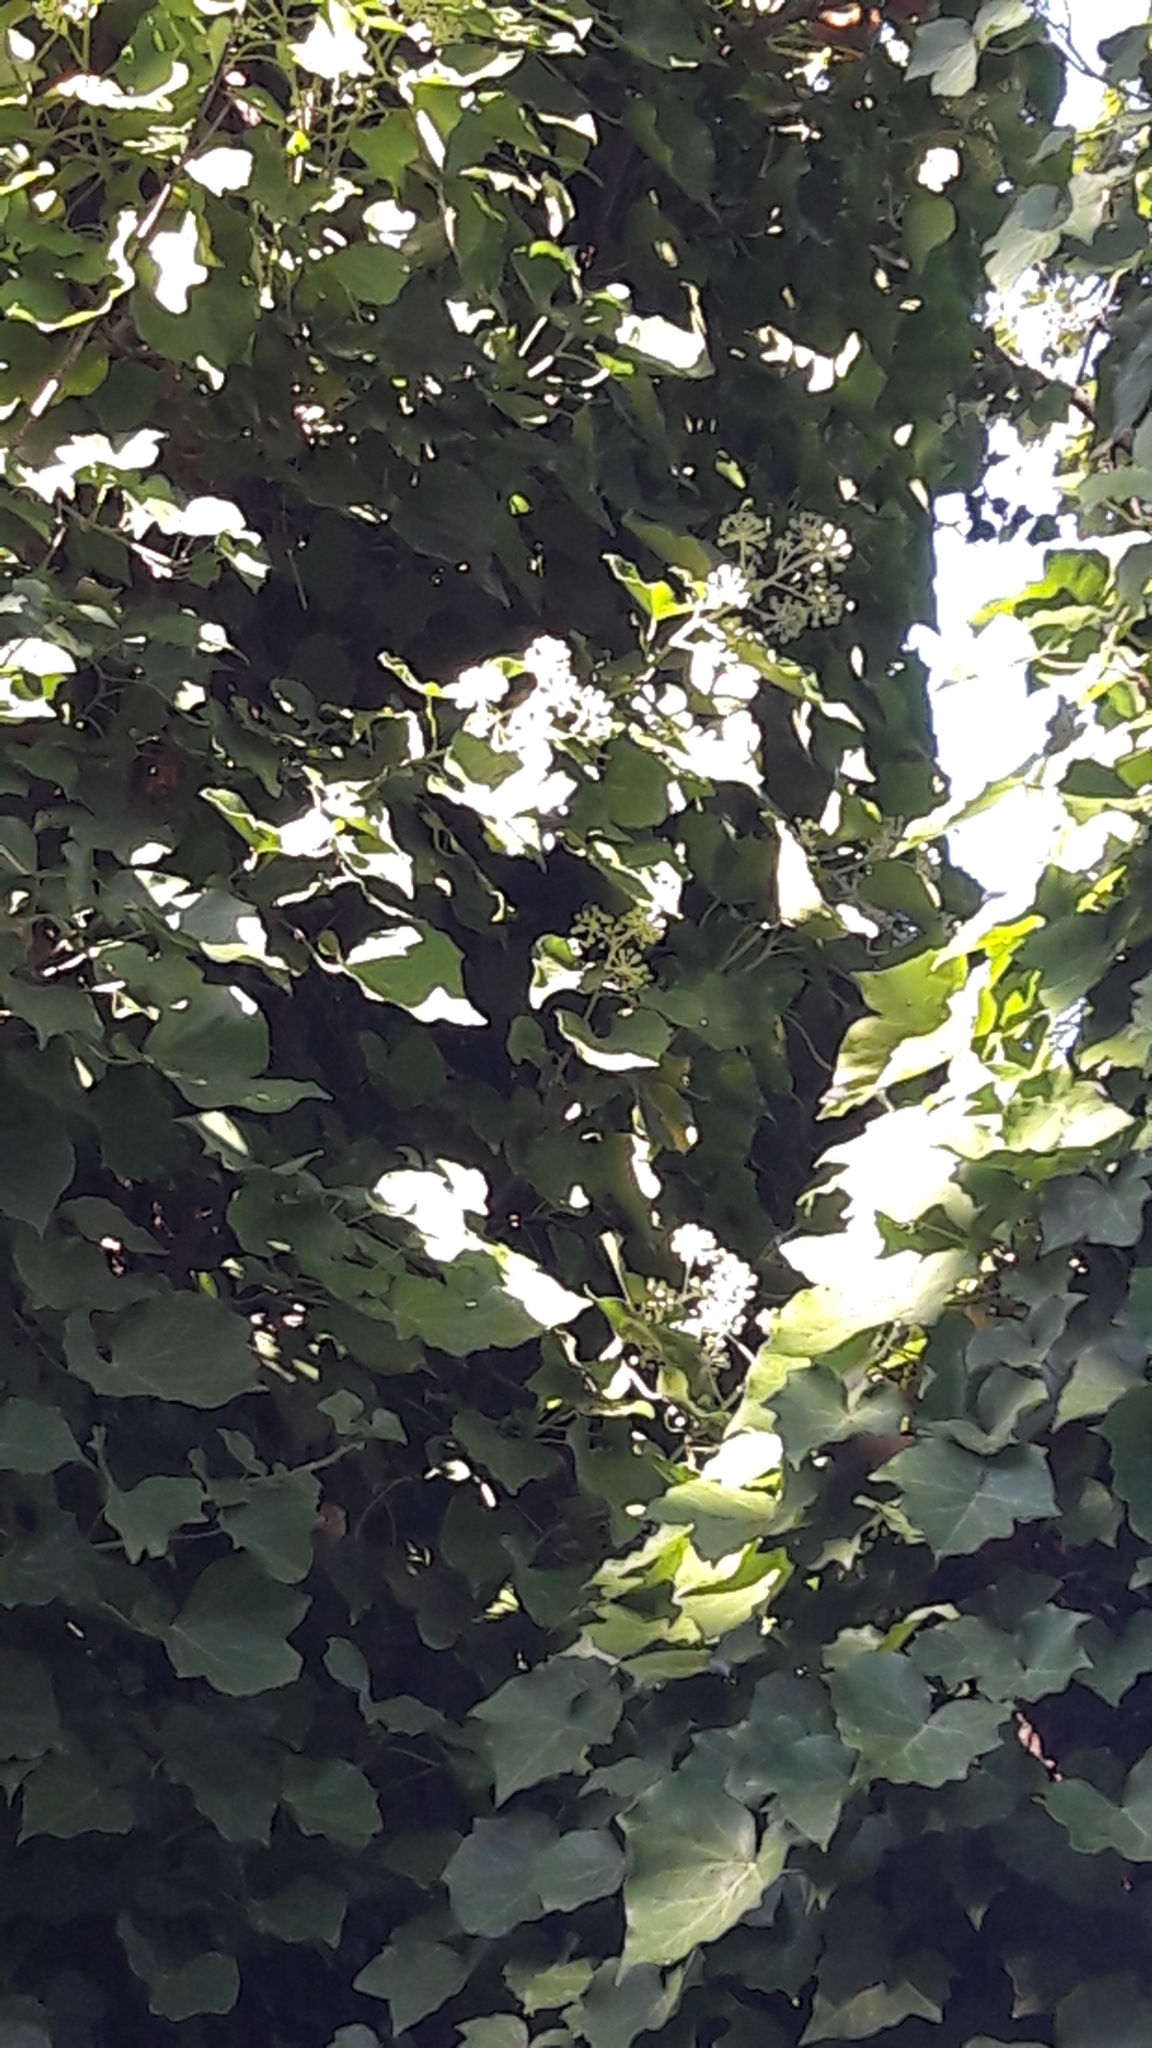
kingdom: Plantae
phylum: Tracheophyta
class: Magnoliopsida
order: Apiales
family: Araliaceae
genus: Hedera
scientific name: Hedera helix
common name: Ivy
